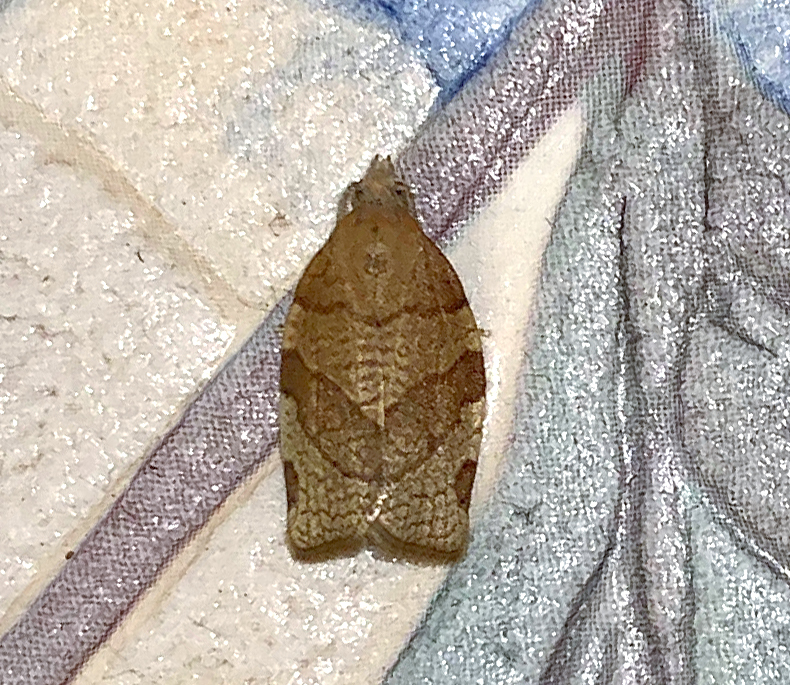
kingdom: Animalia
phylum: Arthropoda
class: Insecta
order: Lepidoptera
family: Tortricidae
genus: Pandemis
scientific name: Pandemis cerasana
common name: Barred fruit-tree tortrix
